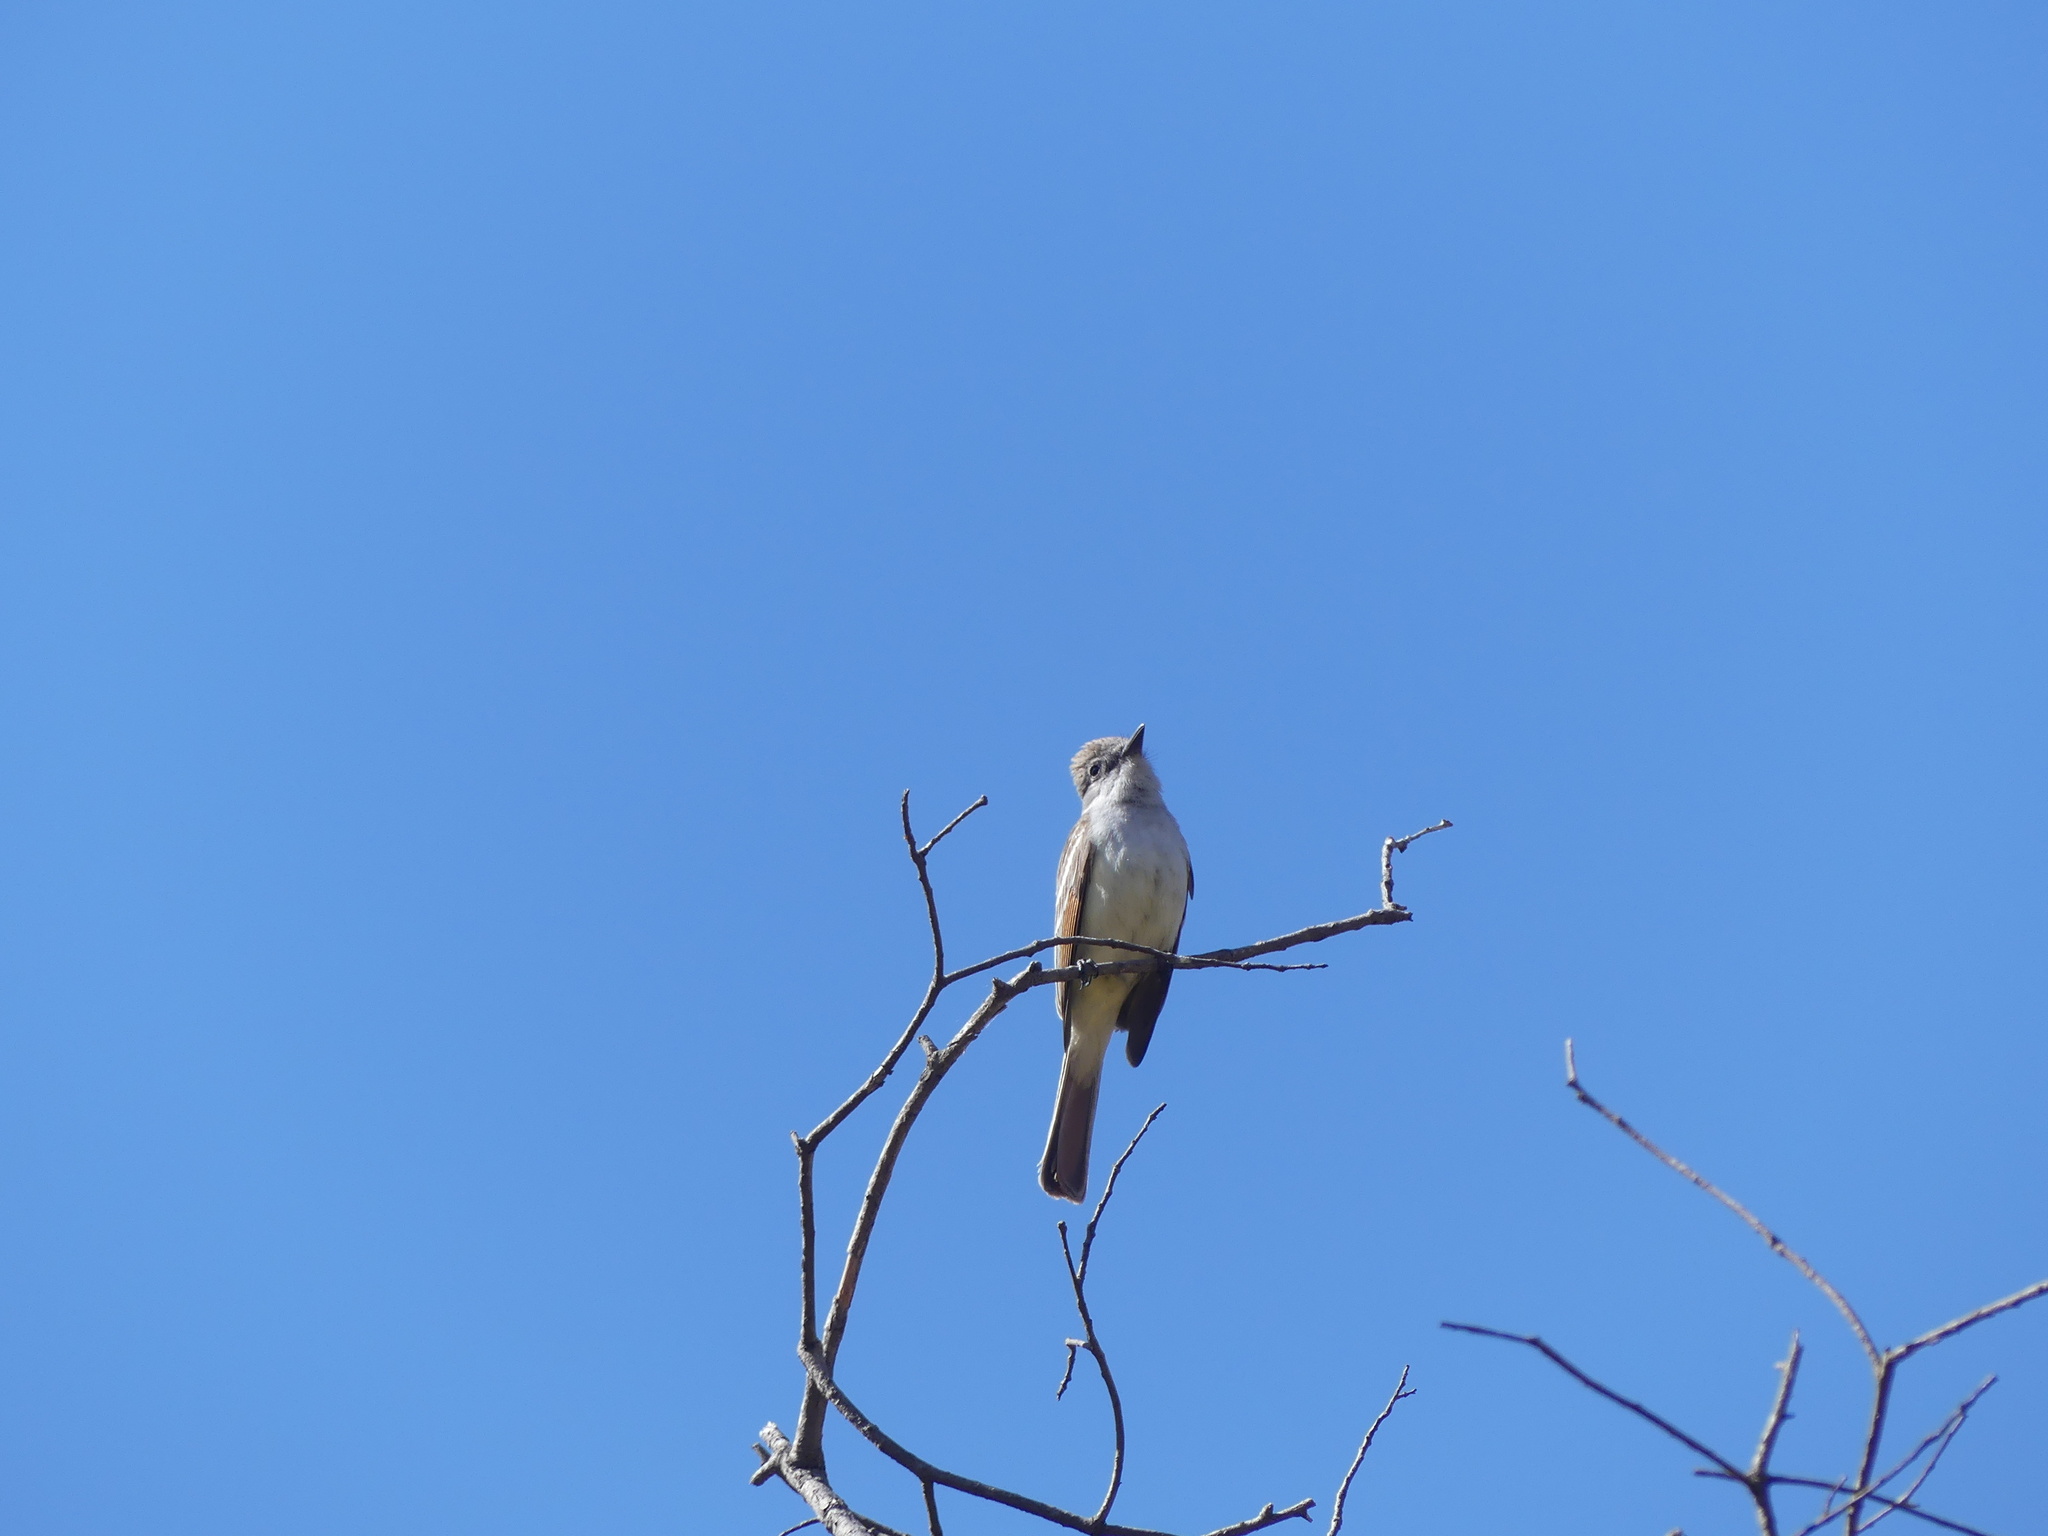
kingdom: Animalia
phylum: Chordata
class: Aves
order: Passeriformes
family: Tyrannidae
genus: Myiarchus
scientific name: Myiarchus cinerascens
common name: Ash-throated flycatcher
